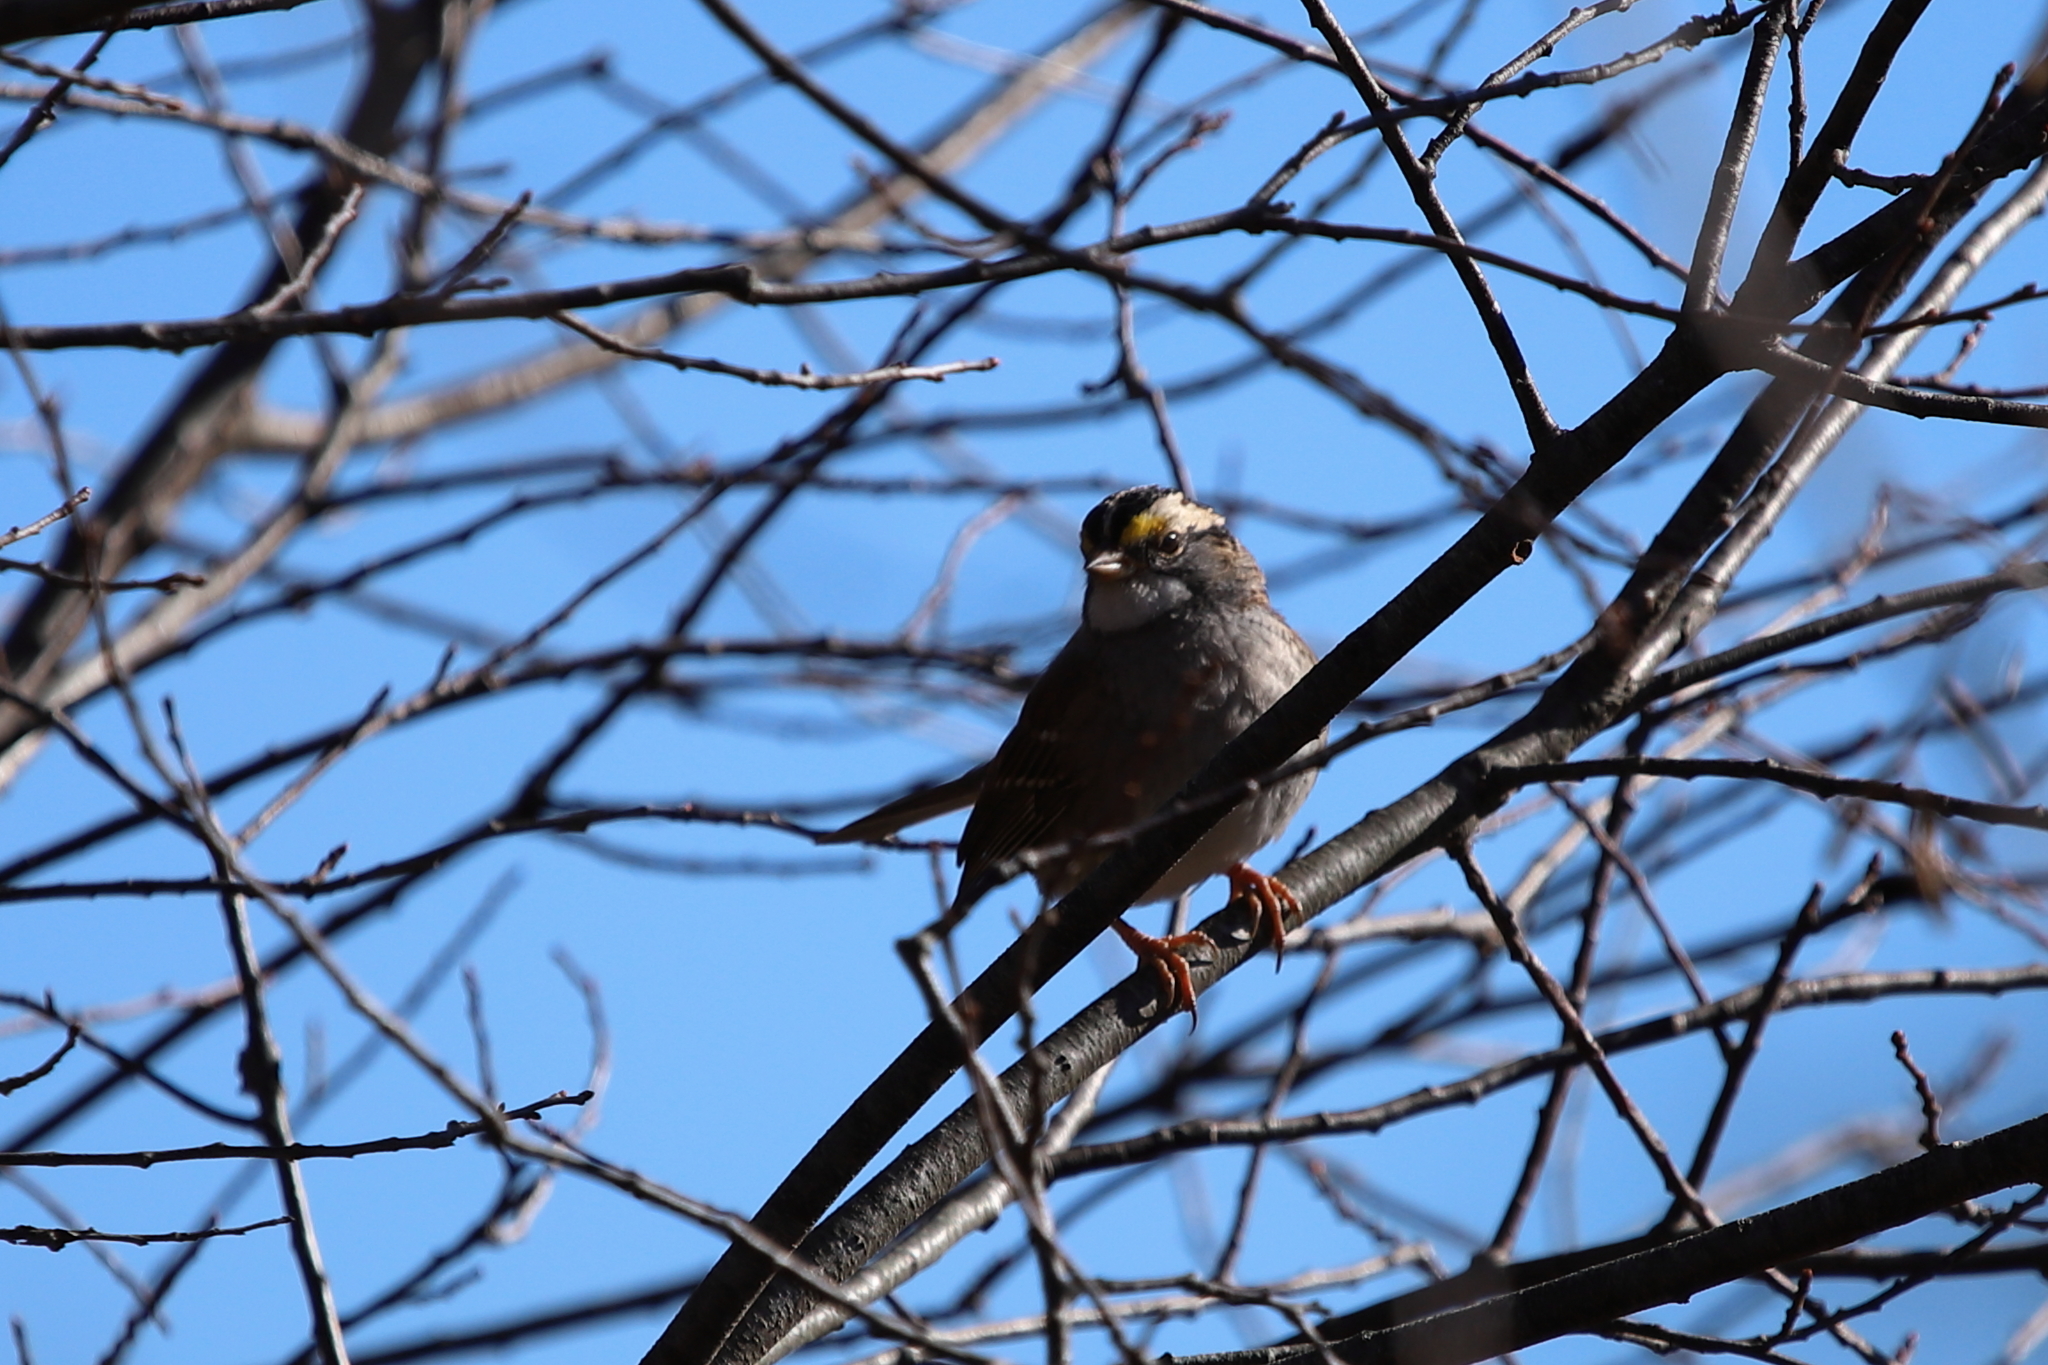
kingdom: Animalia
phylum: Chordata
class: Aves
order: Passeriformes
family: Passerellidae
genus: Zonotrichia
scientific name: Zonotrichia albicollis
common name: White-throated sparrow
